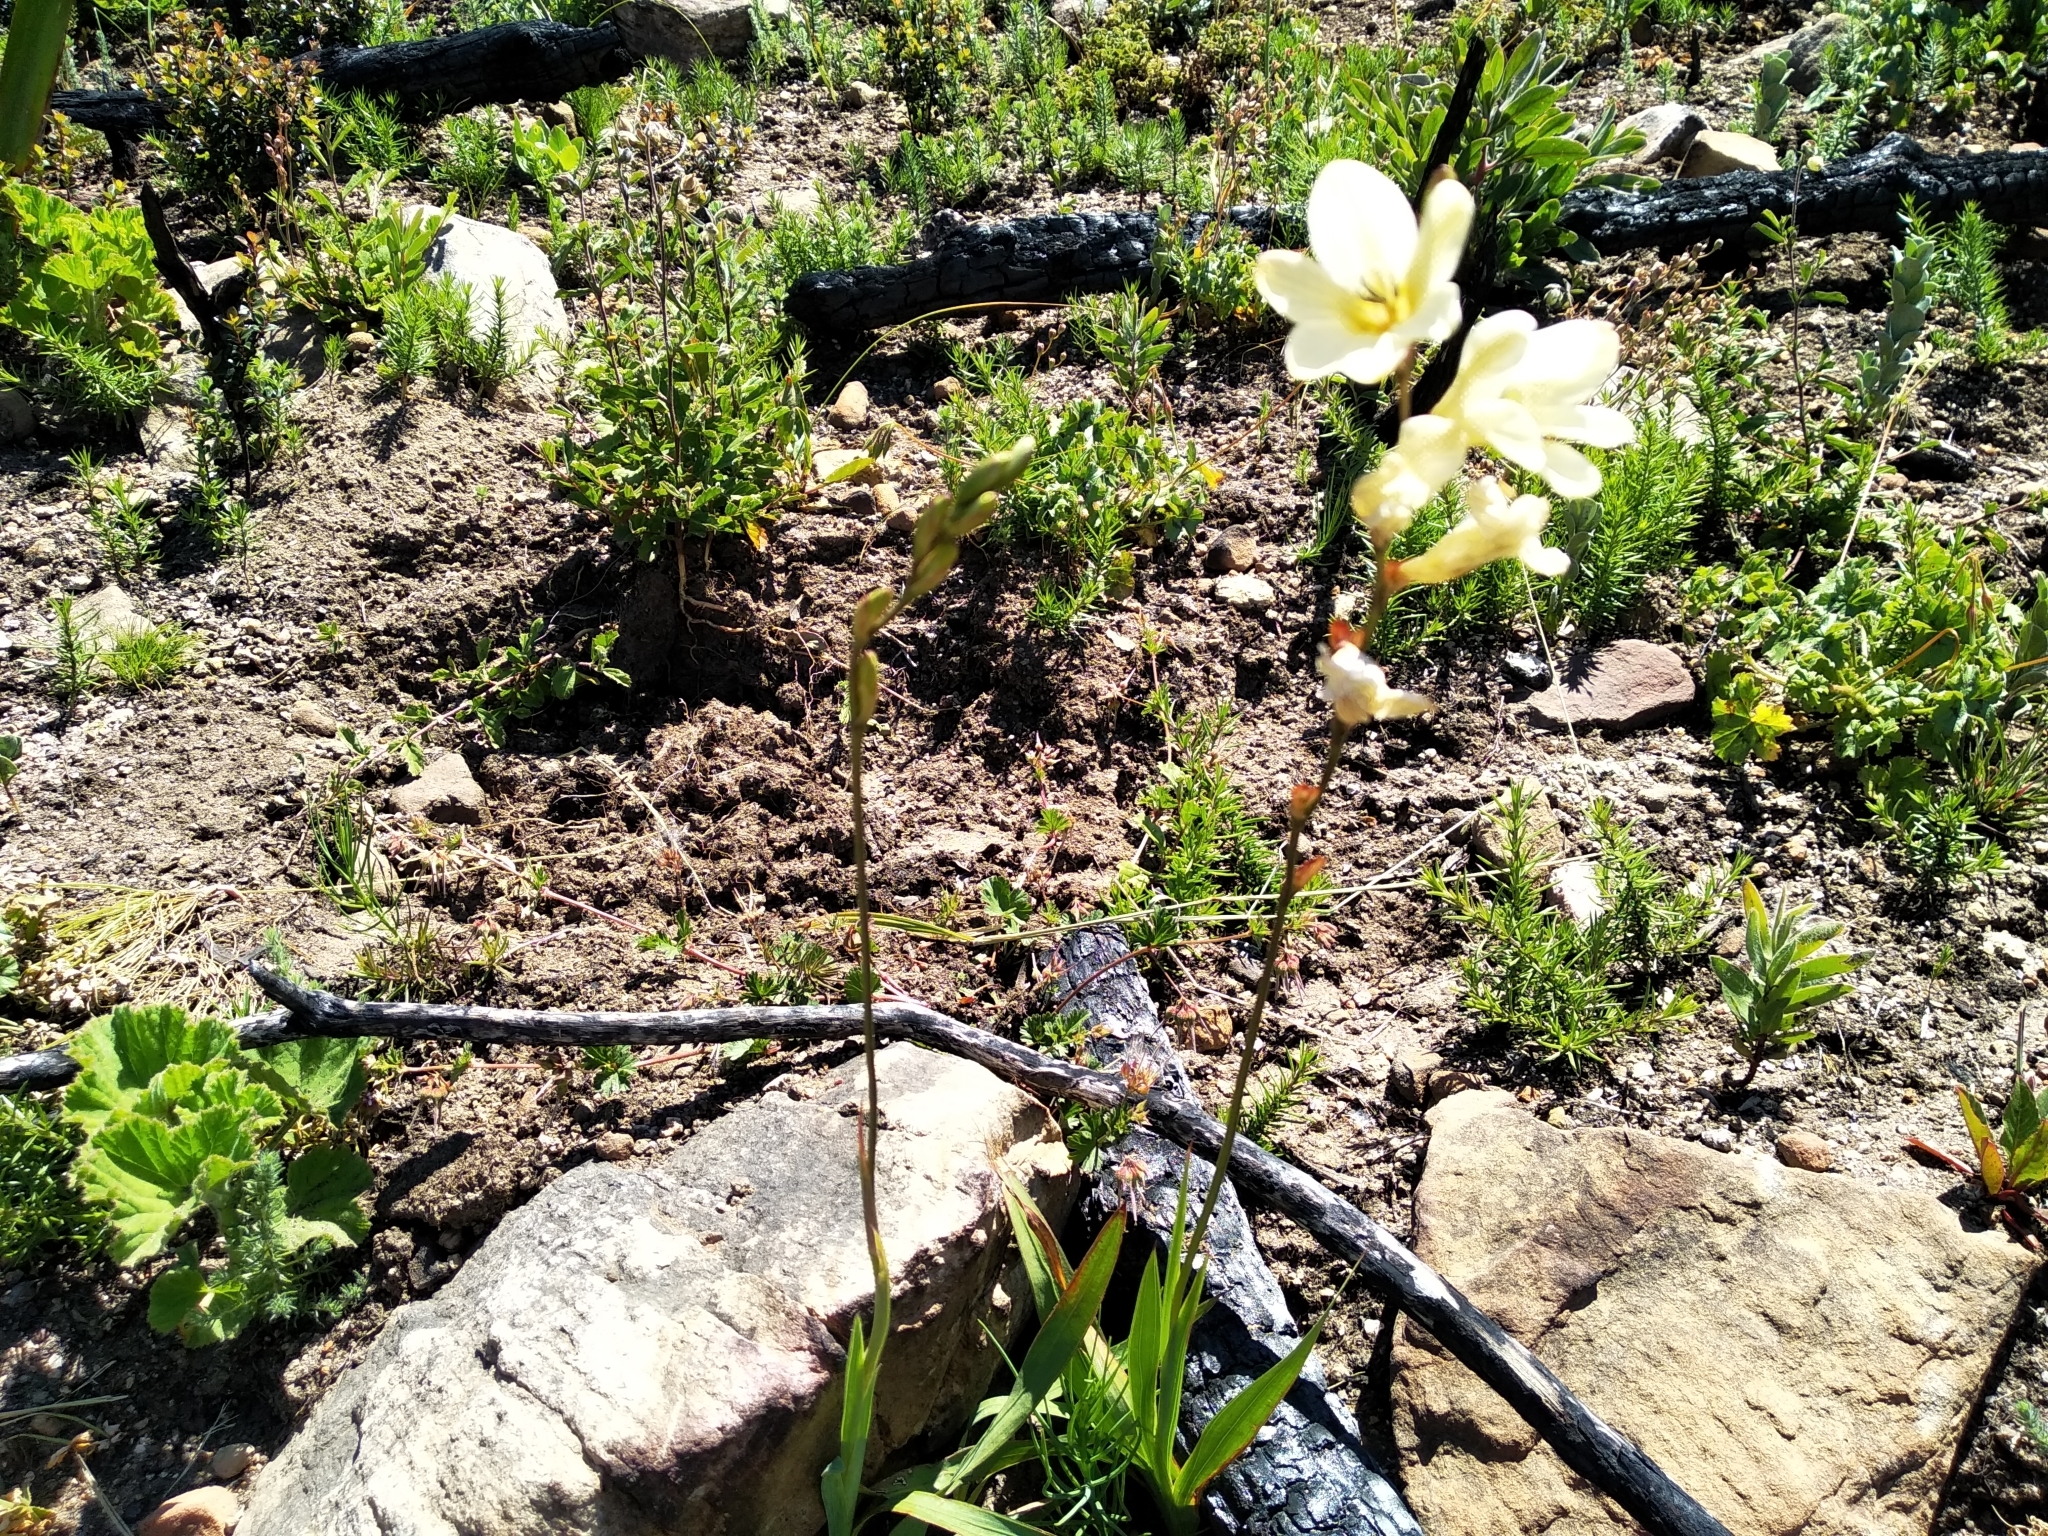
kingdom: Plantae
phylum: Tracheophyta
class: Liliopsida
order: Asparagales
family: Iridaceae
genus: Tritonia
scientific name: Tritonia gladiolaris
